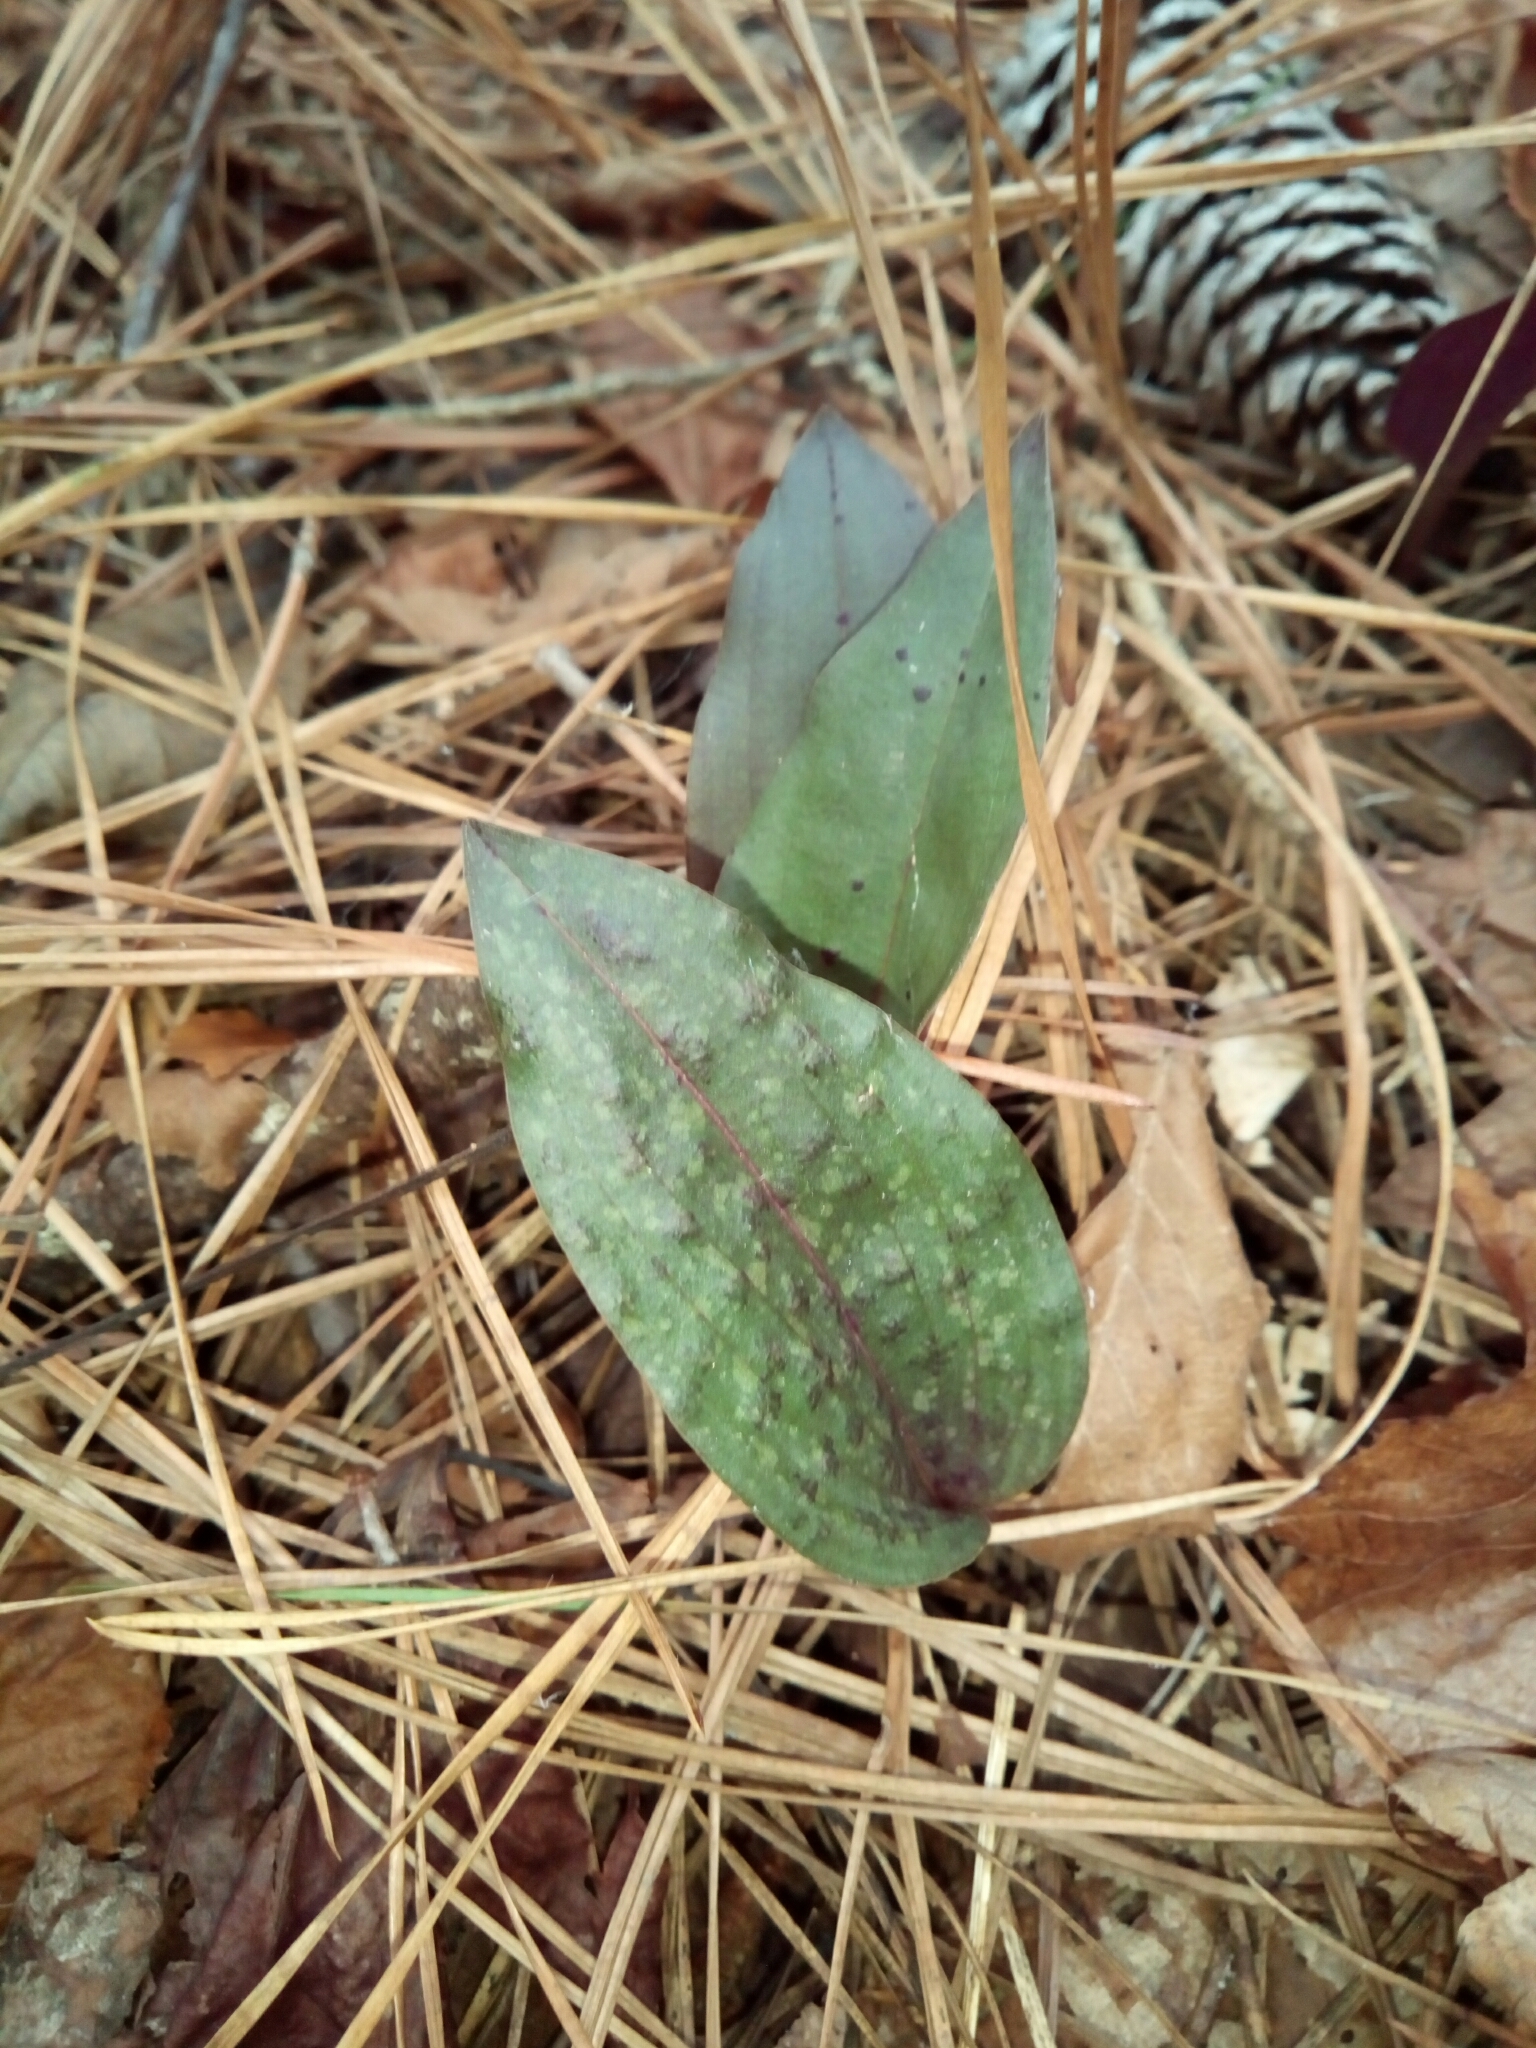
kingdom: Plantae
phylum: Tracheophyta
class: Liliopsida
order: Asparagales
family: Orchidaceae
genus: Tipularia
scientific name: Tipularia discolor
